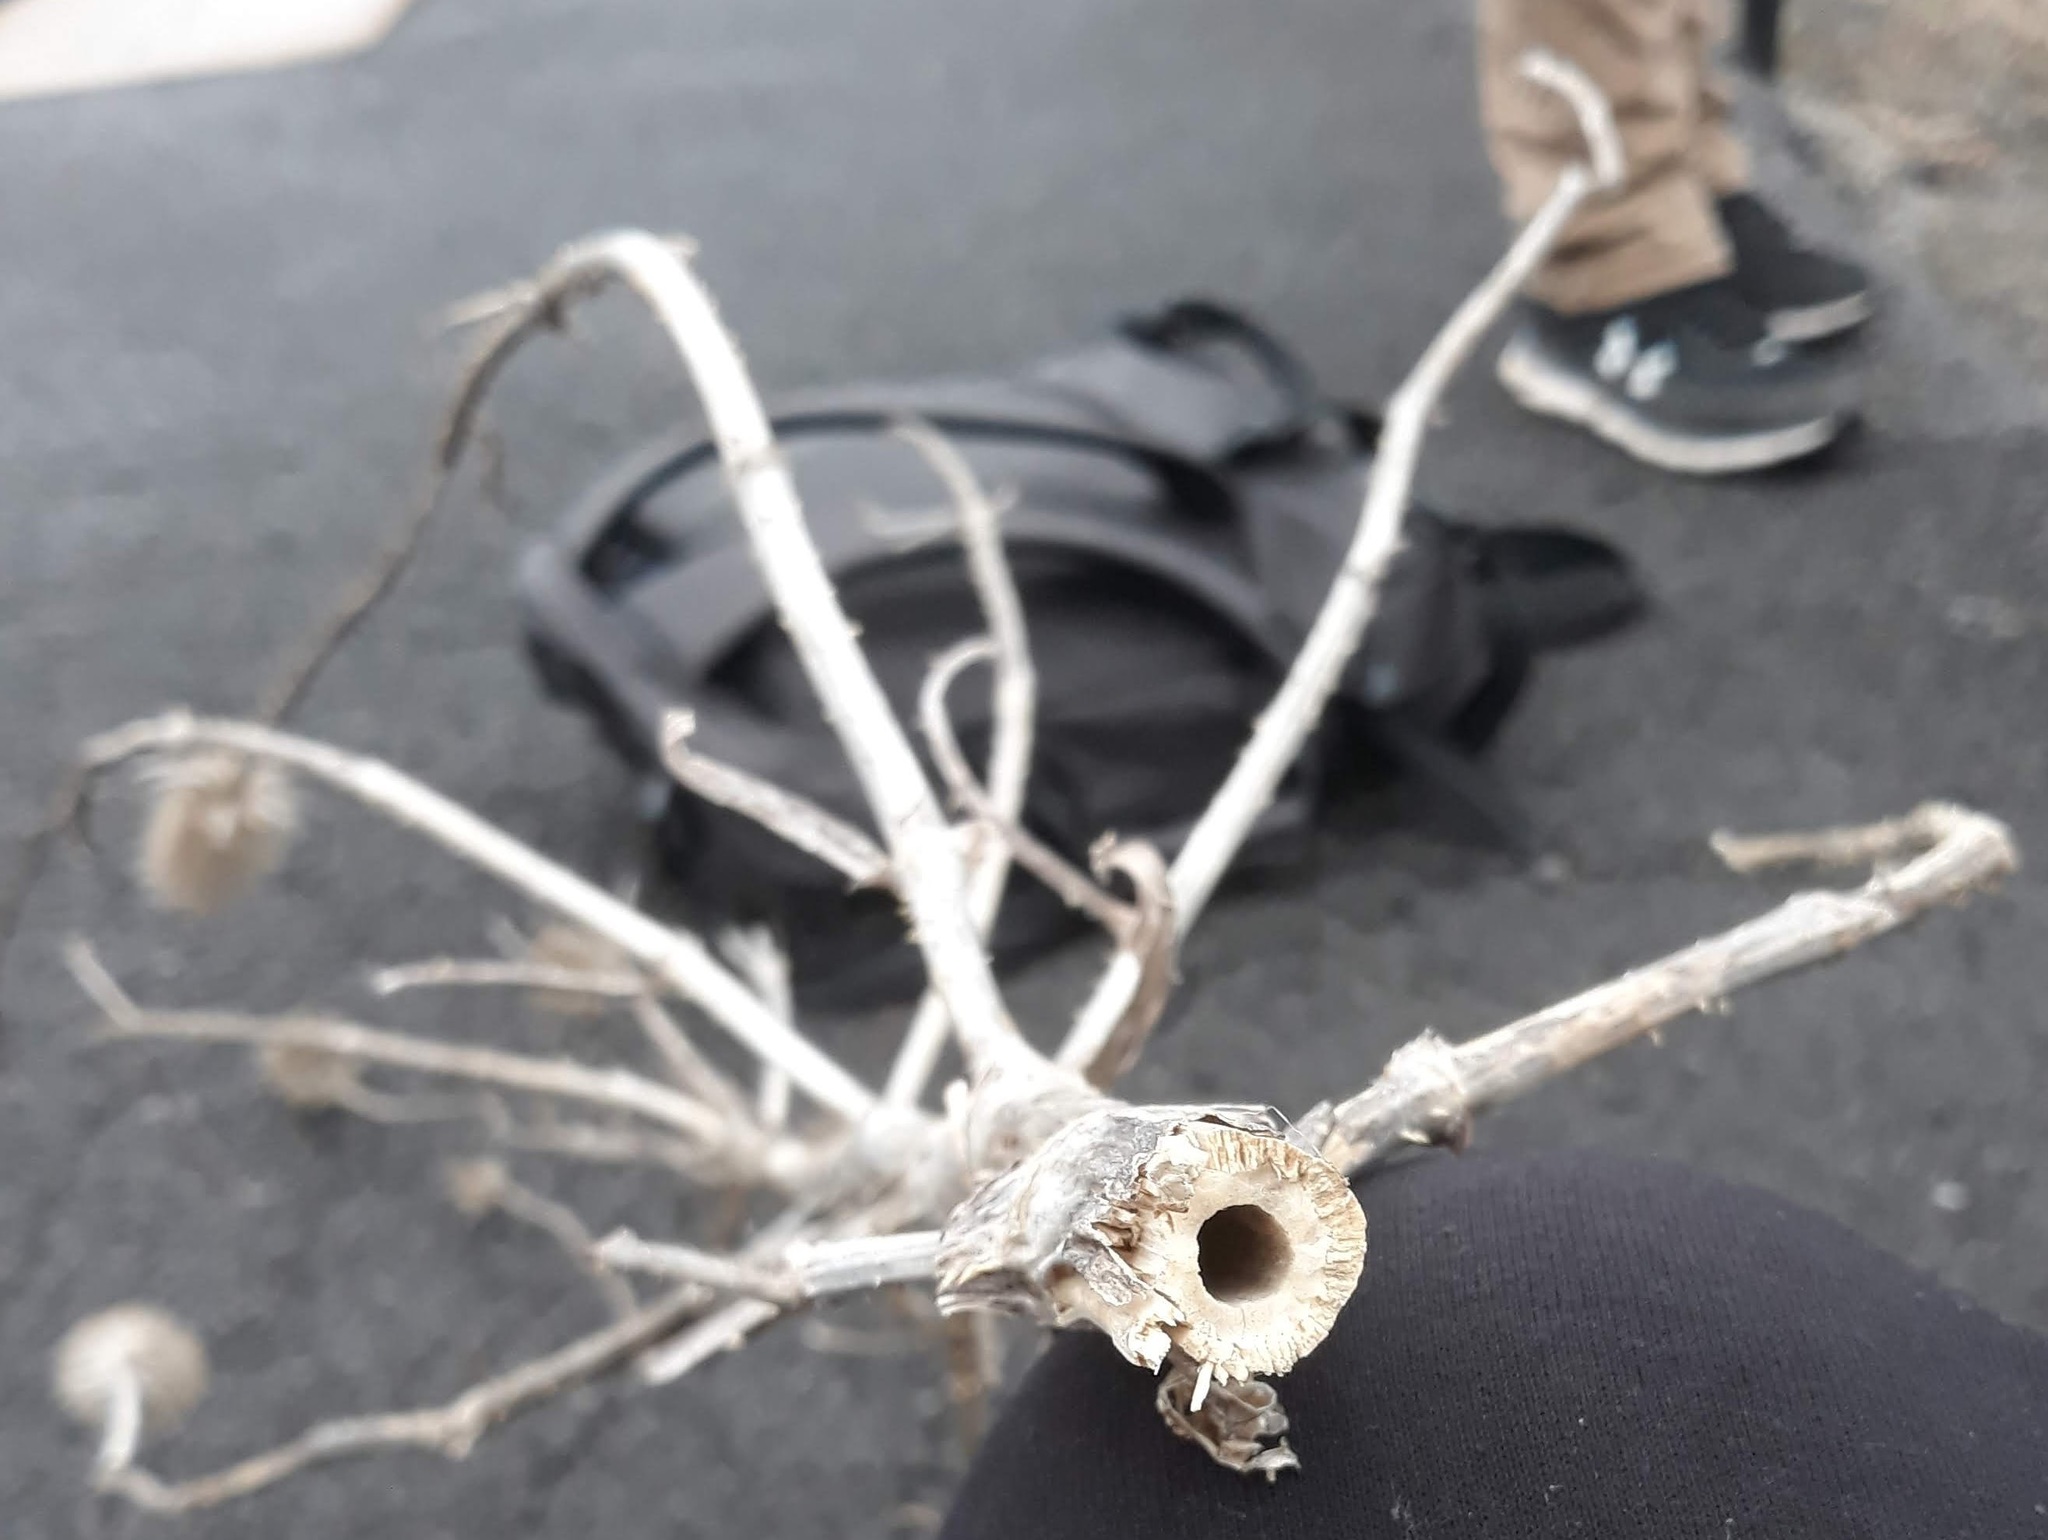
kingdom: Plantae
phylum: Tracheophyta
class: Magnoliopsida
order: Dipsacales
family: Caprifoliaceae
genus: Dipsacus
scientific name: Dipsacus fullonum
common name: Teasel
